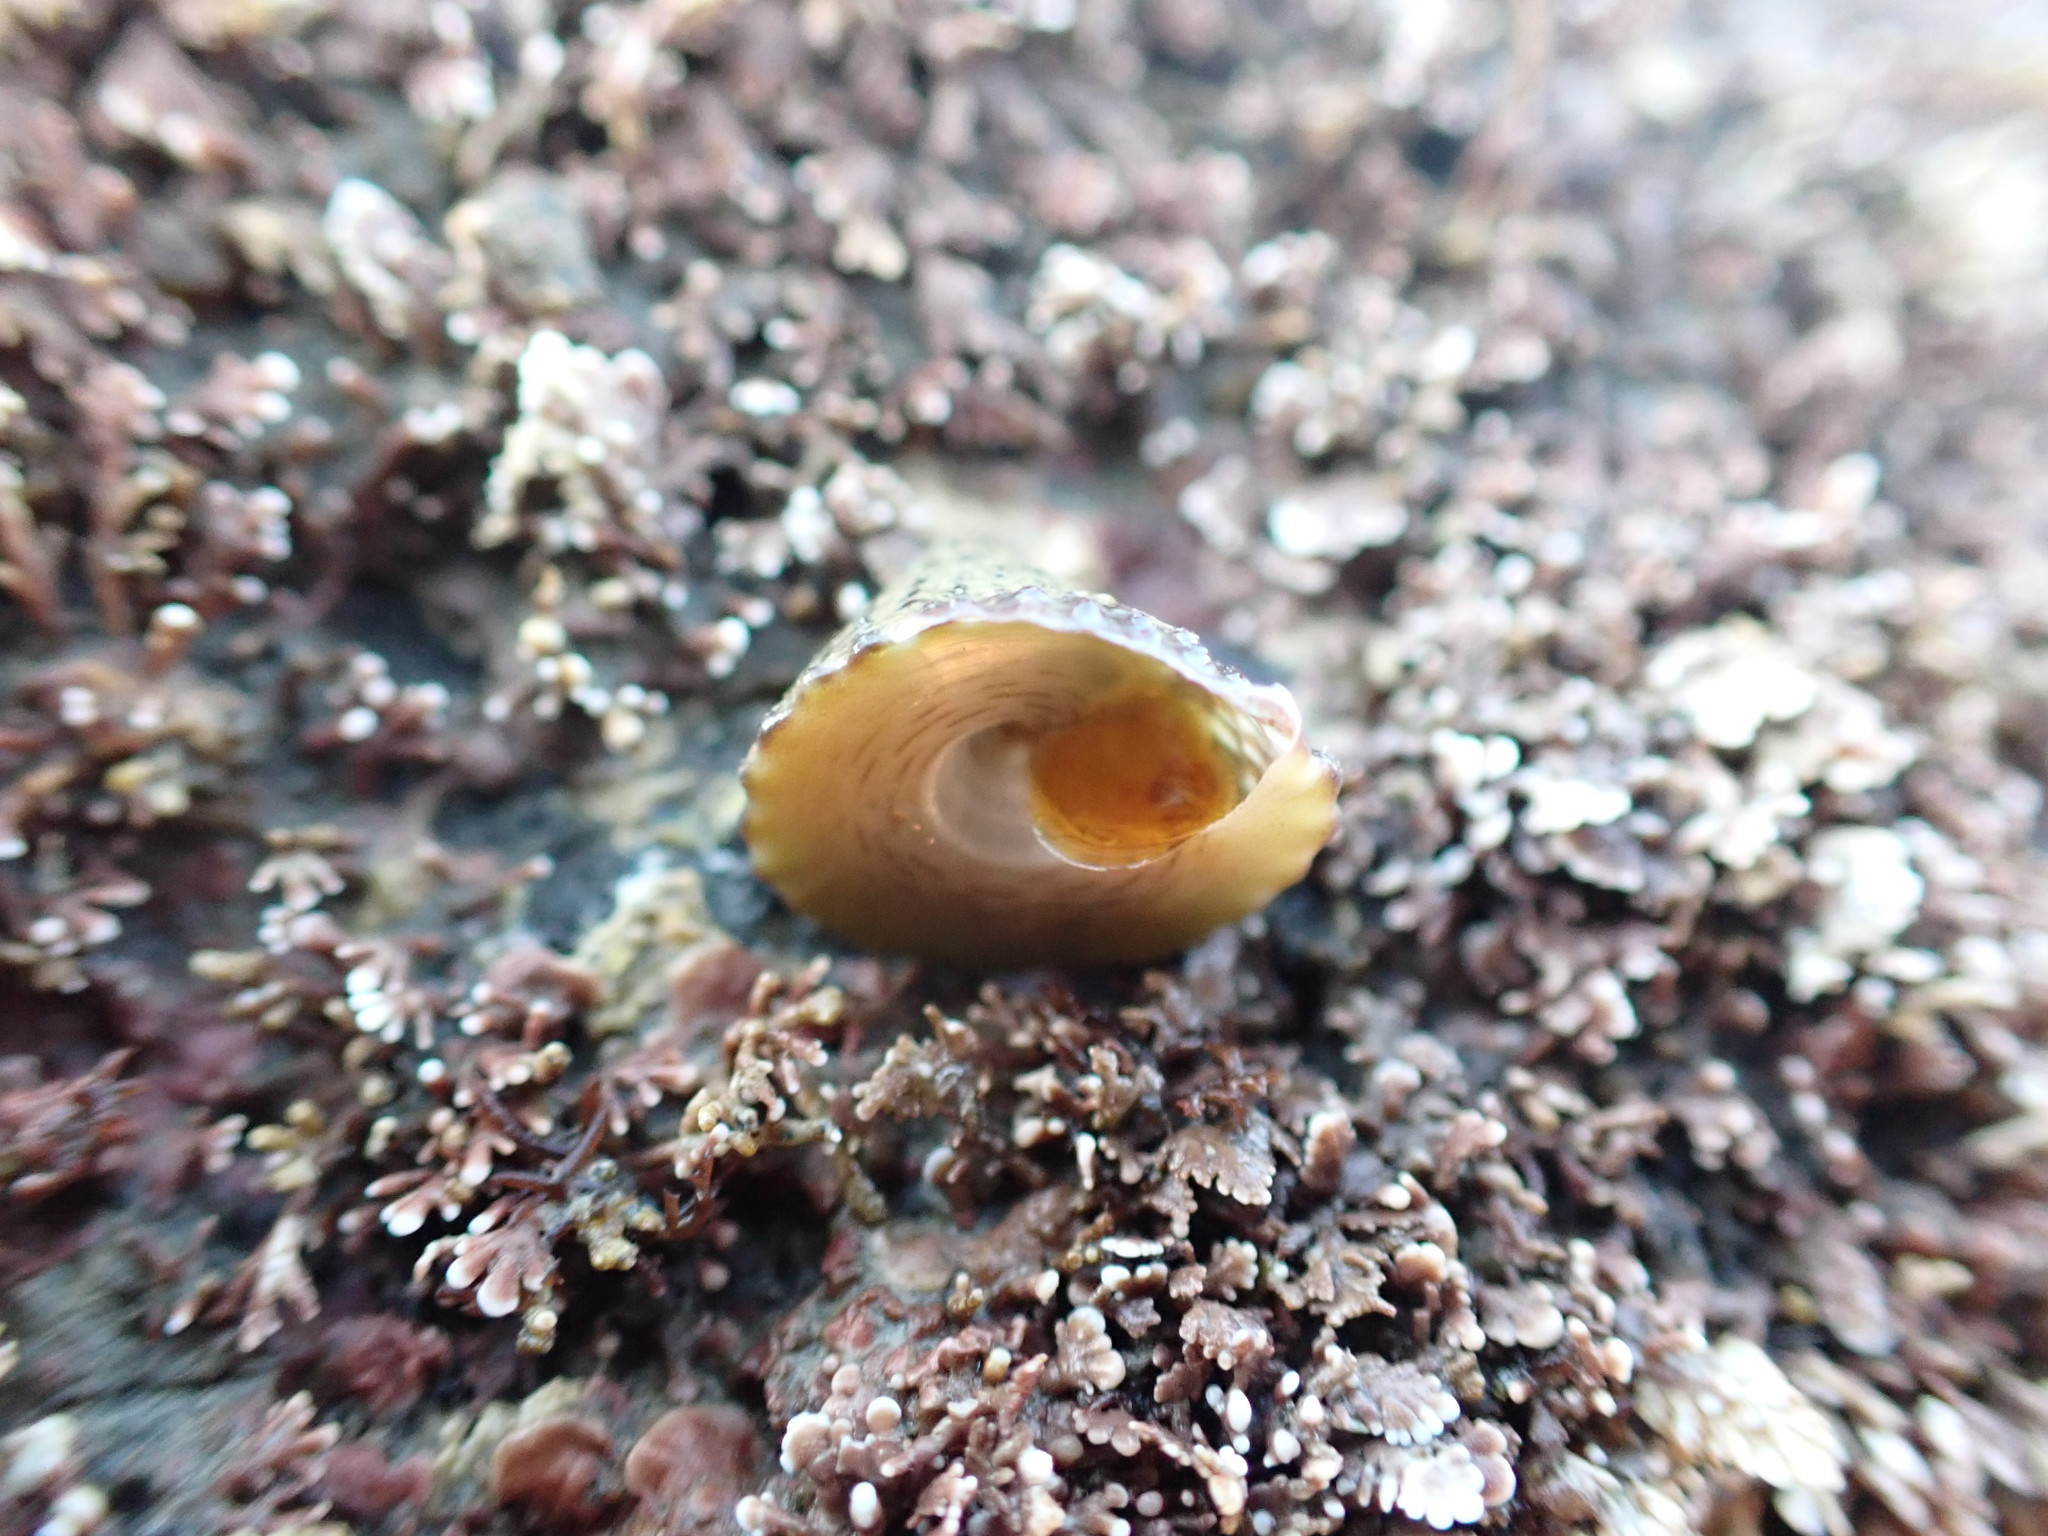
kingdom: Animalia
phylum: Mollusca
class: Gastropoda
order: Trochida
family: Trochidae
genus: Coelotrochus
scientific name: Coelotrochus viridis
